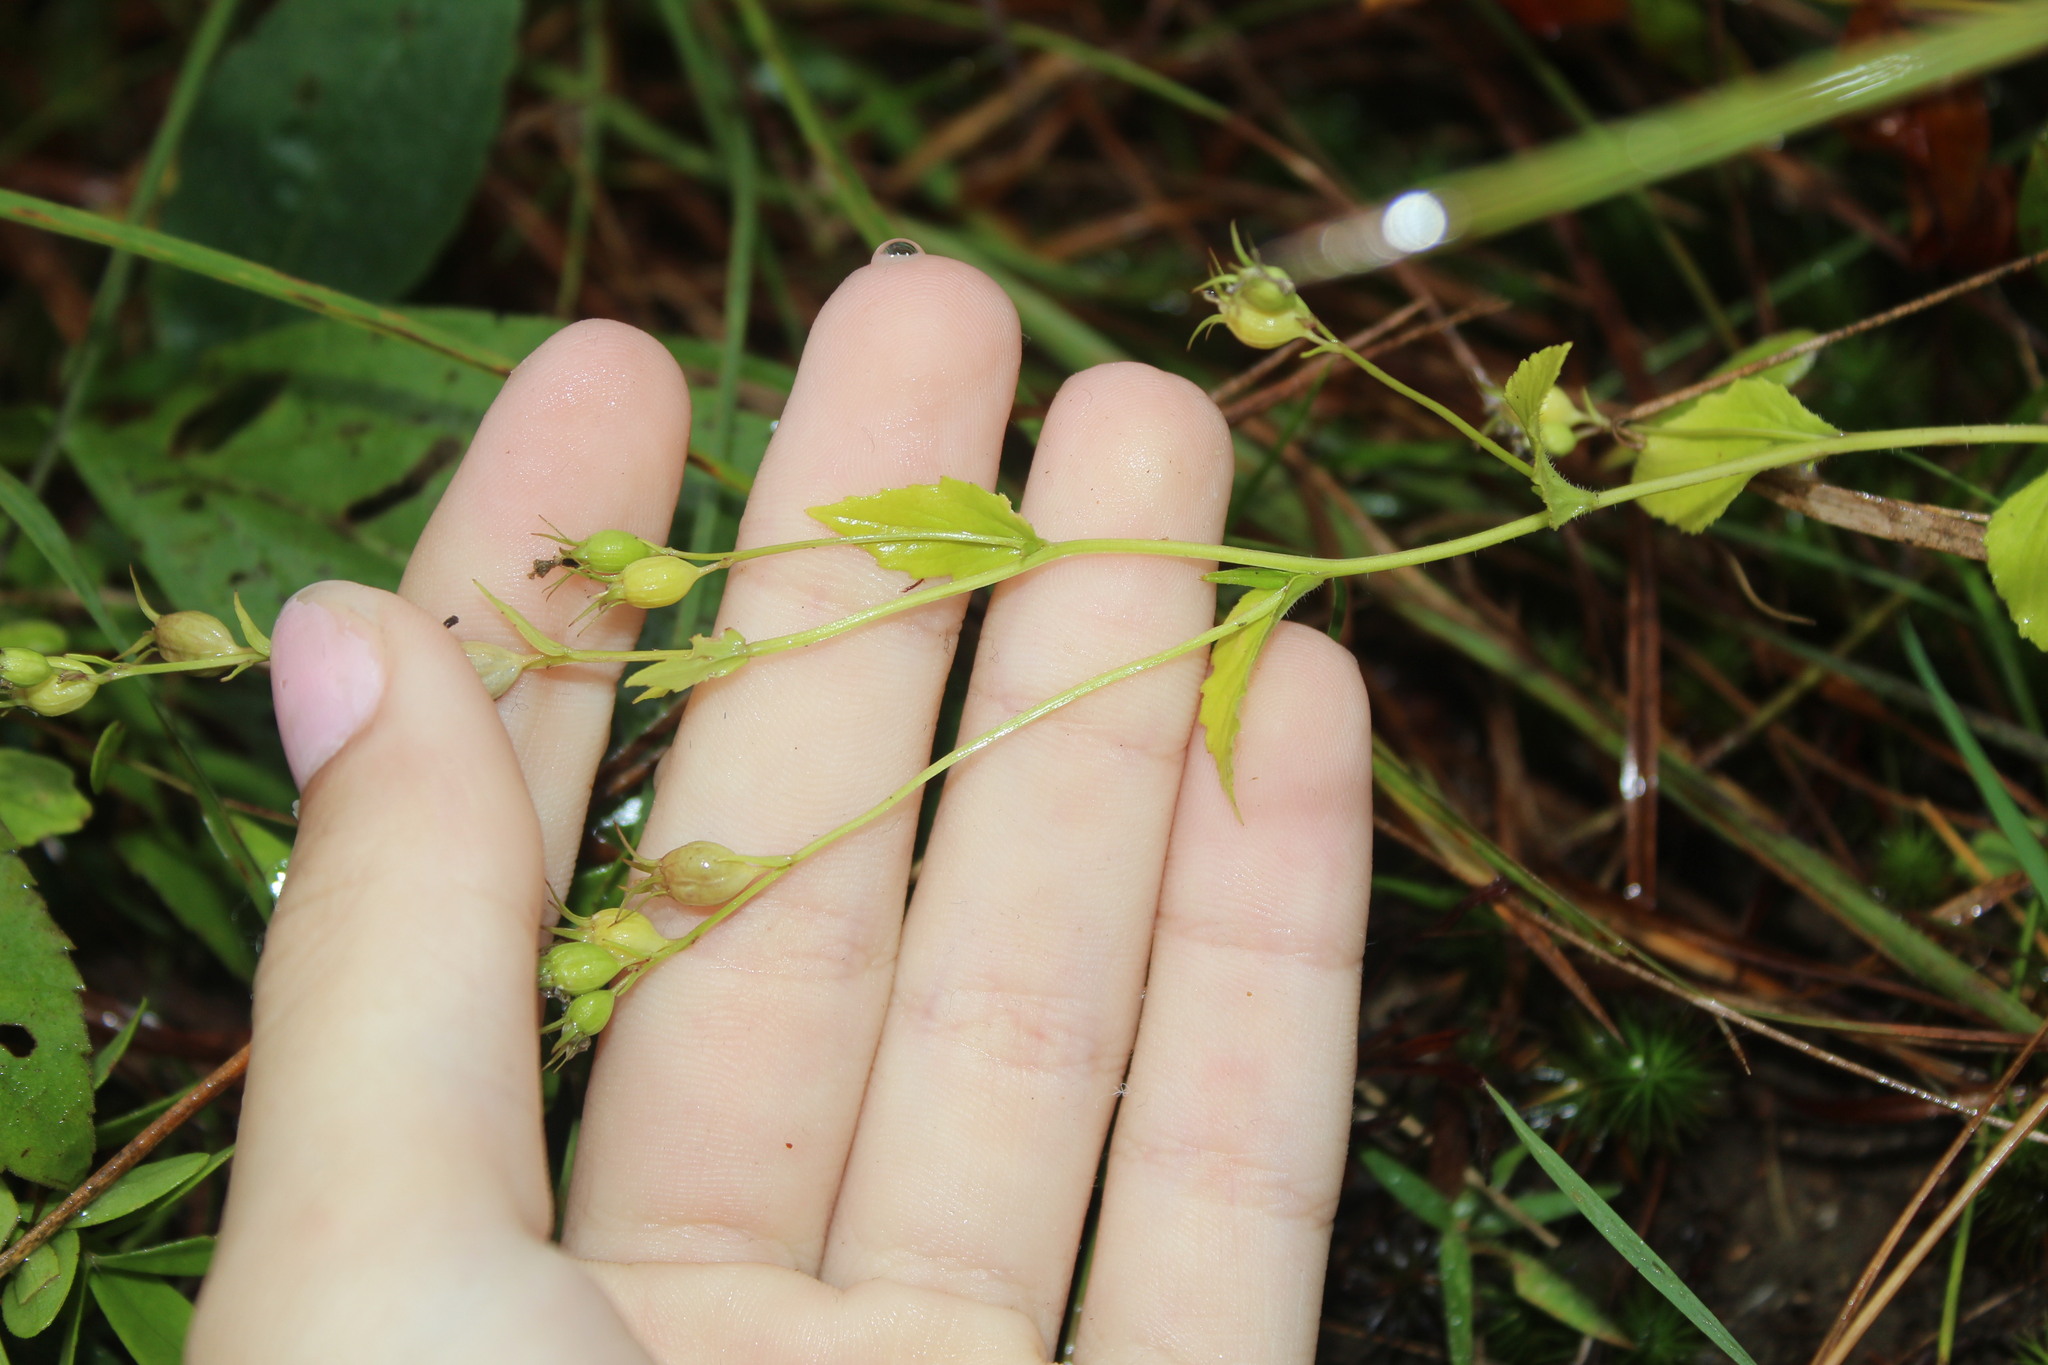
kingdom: Plantae
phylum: Tracheophyta
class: Magnoliopsida
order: Asterales
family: Campanulaceae
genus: Lobelia
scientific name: Lobelia inflata
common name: Indian tobacco
